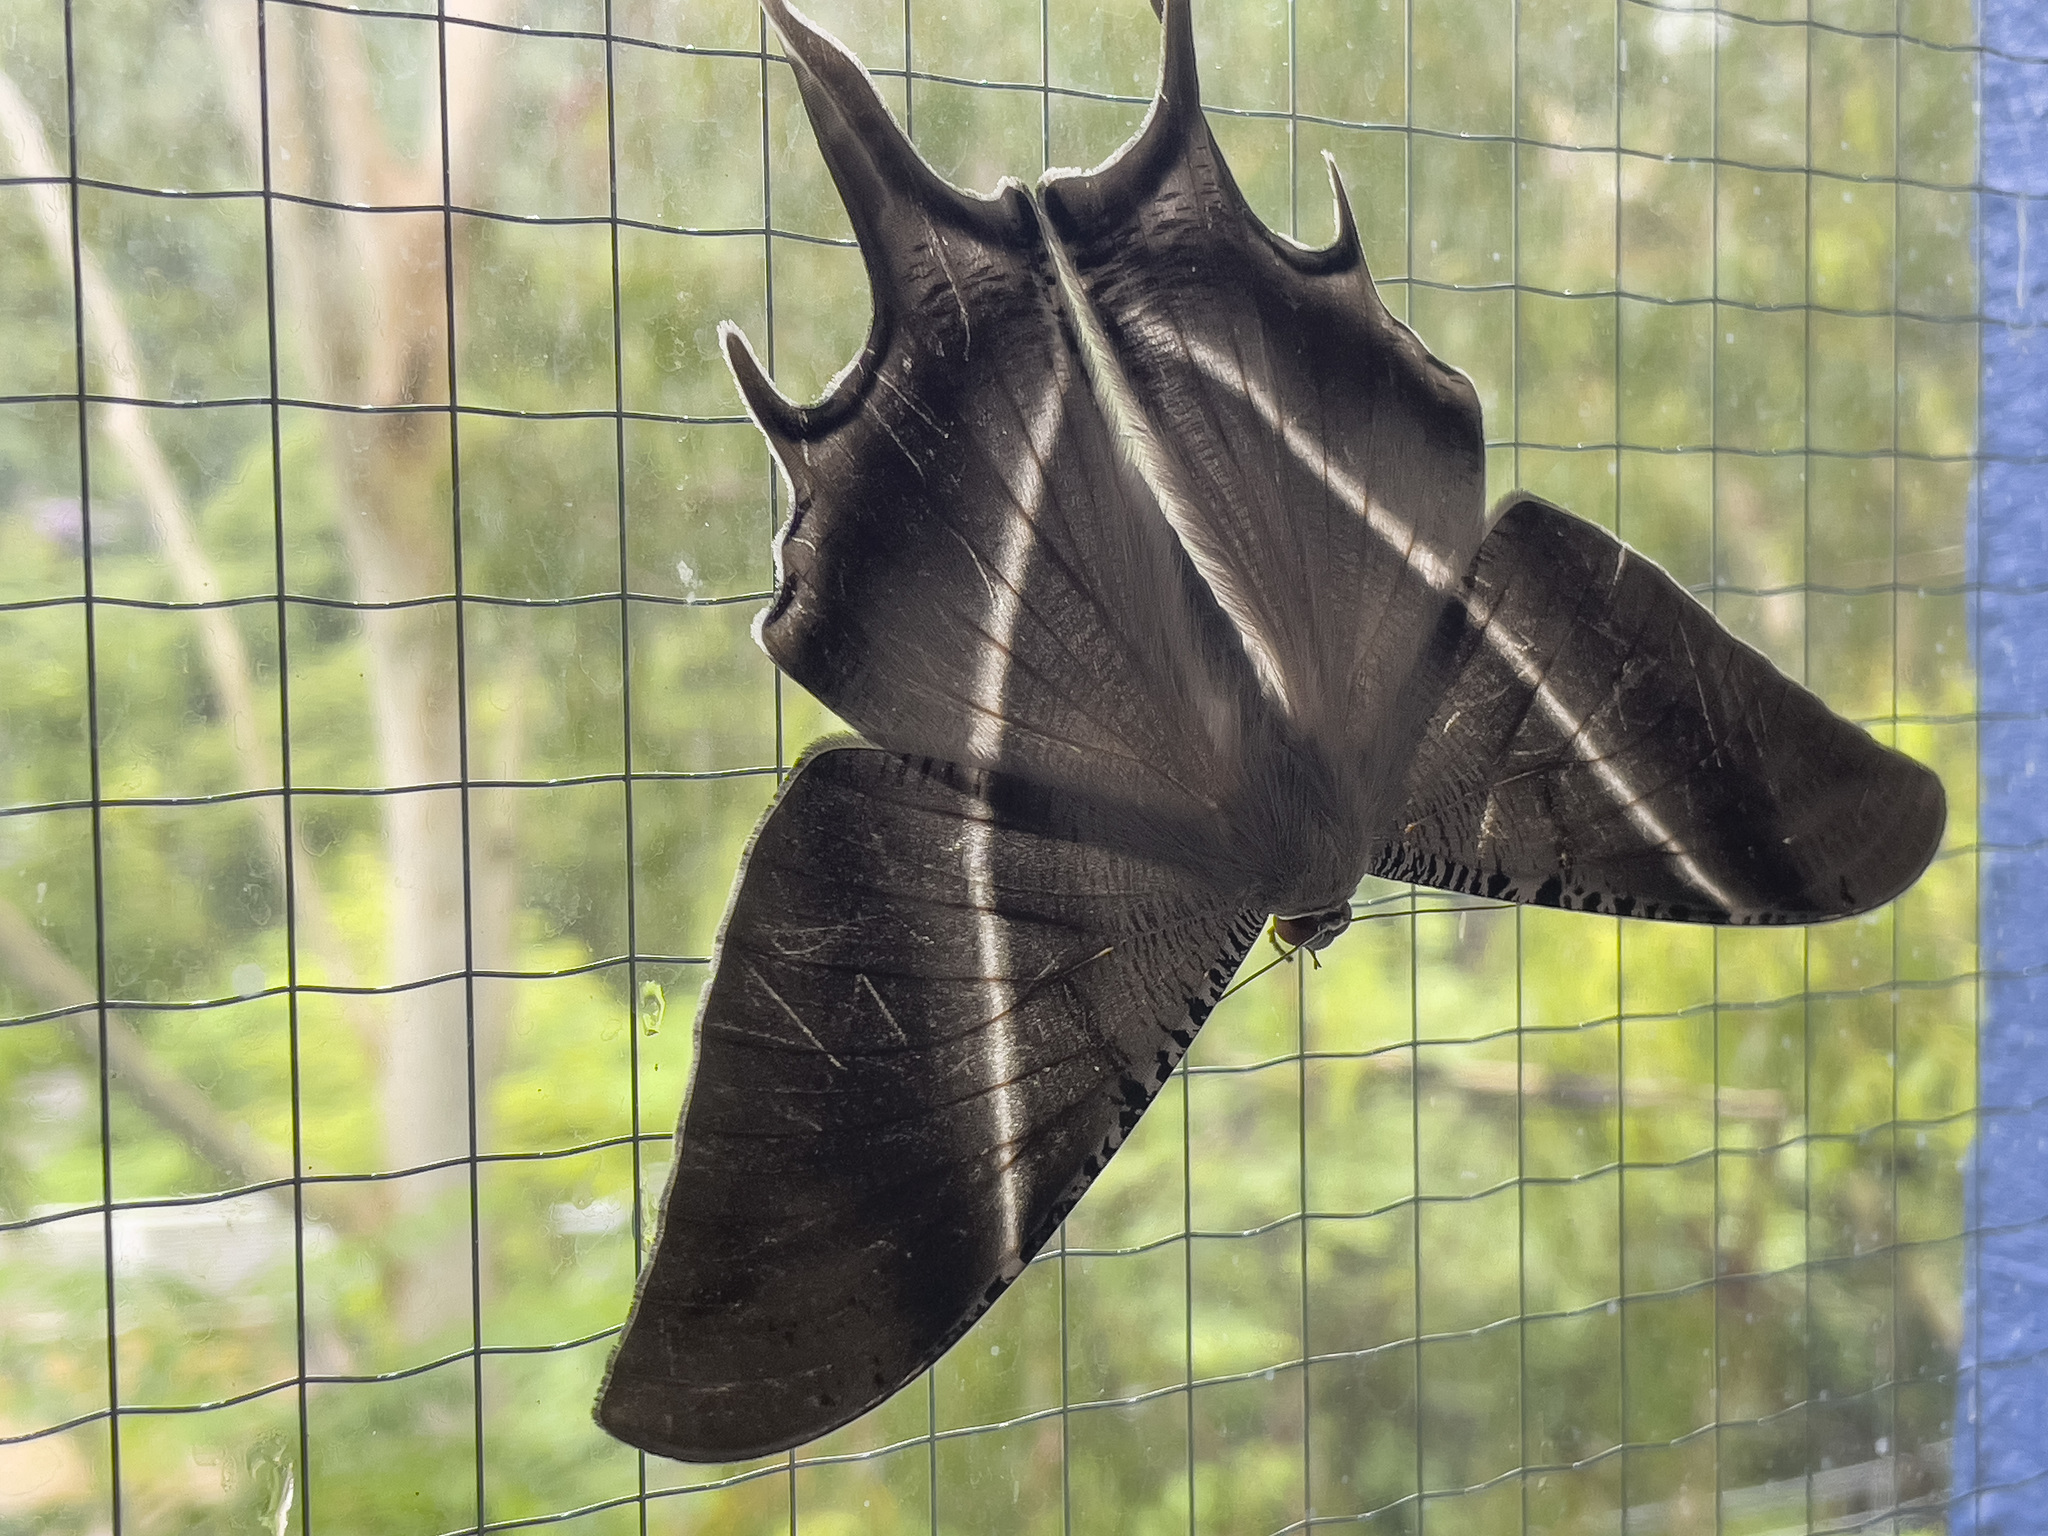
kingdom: Animalia
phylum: Arthropoda
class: Insecta
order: Lepidoptera
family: Uraniidae
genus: Lyssa
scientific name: Lyssa zampa
